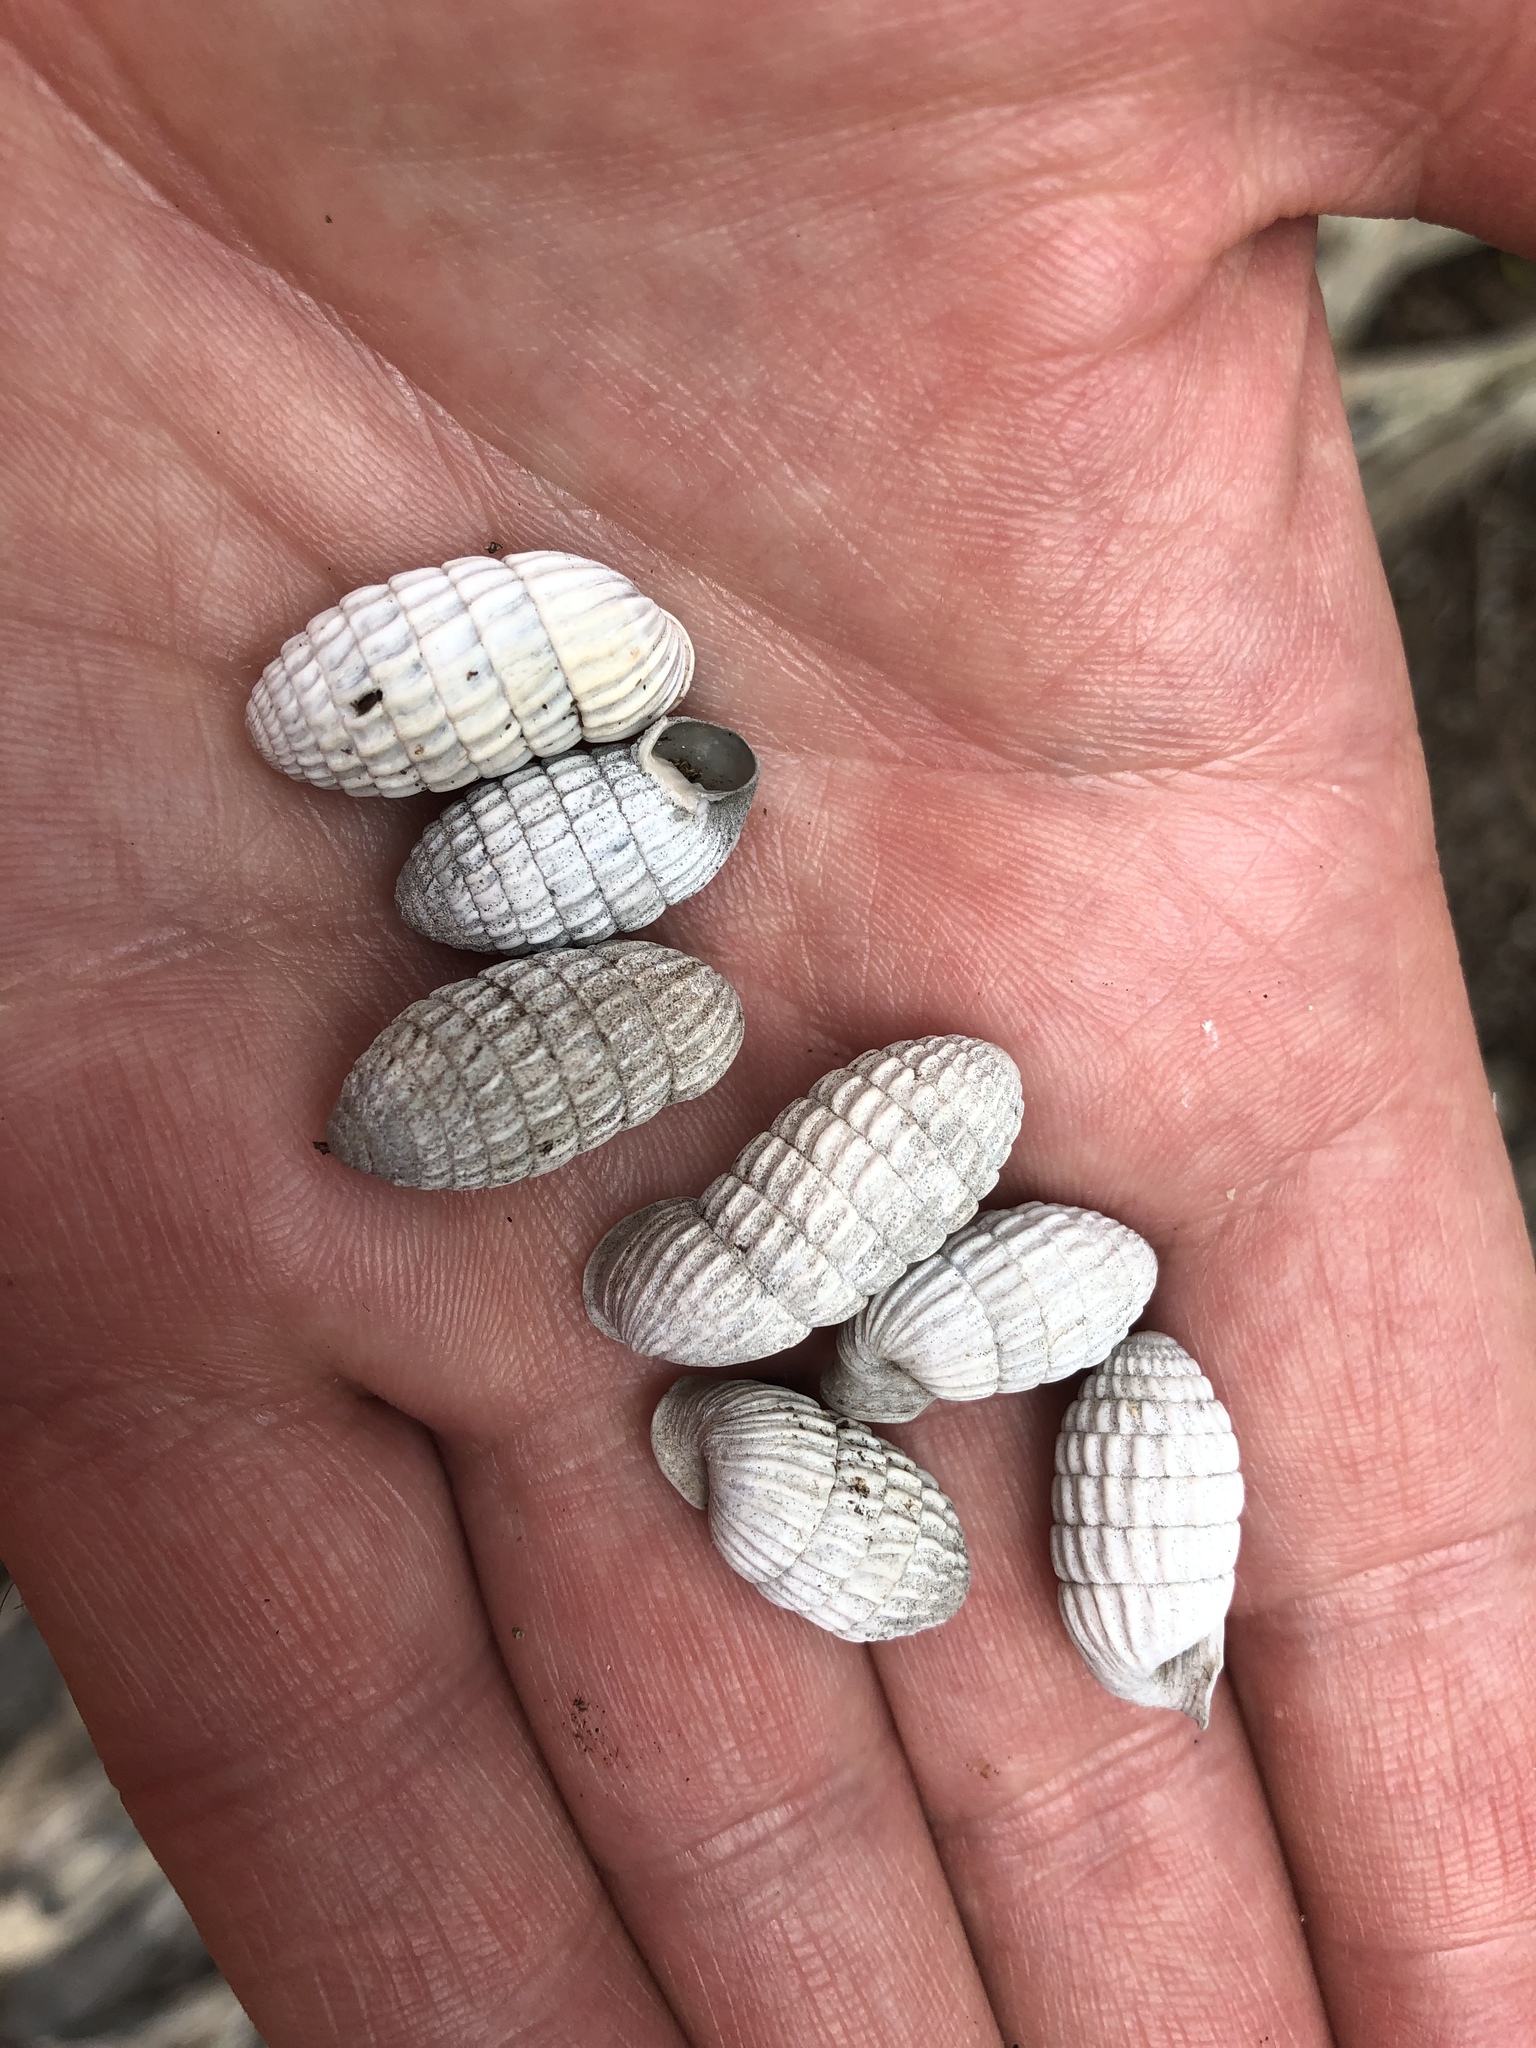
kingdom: Animalia
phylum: Mollusca
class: Gastropoda
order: Stylommatophora
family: Cerionidae
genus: Cerion
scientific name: Cerion uva
